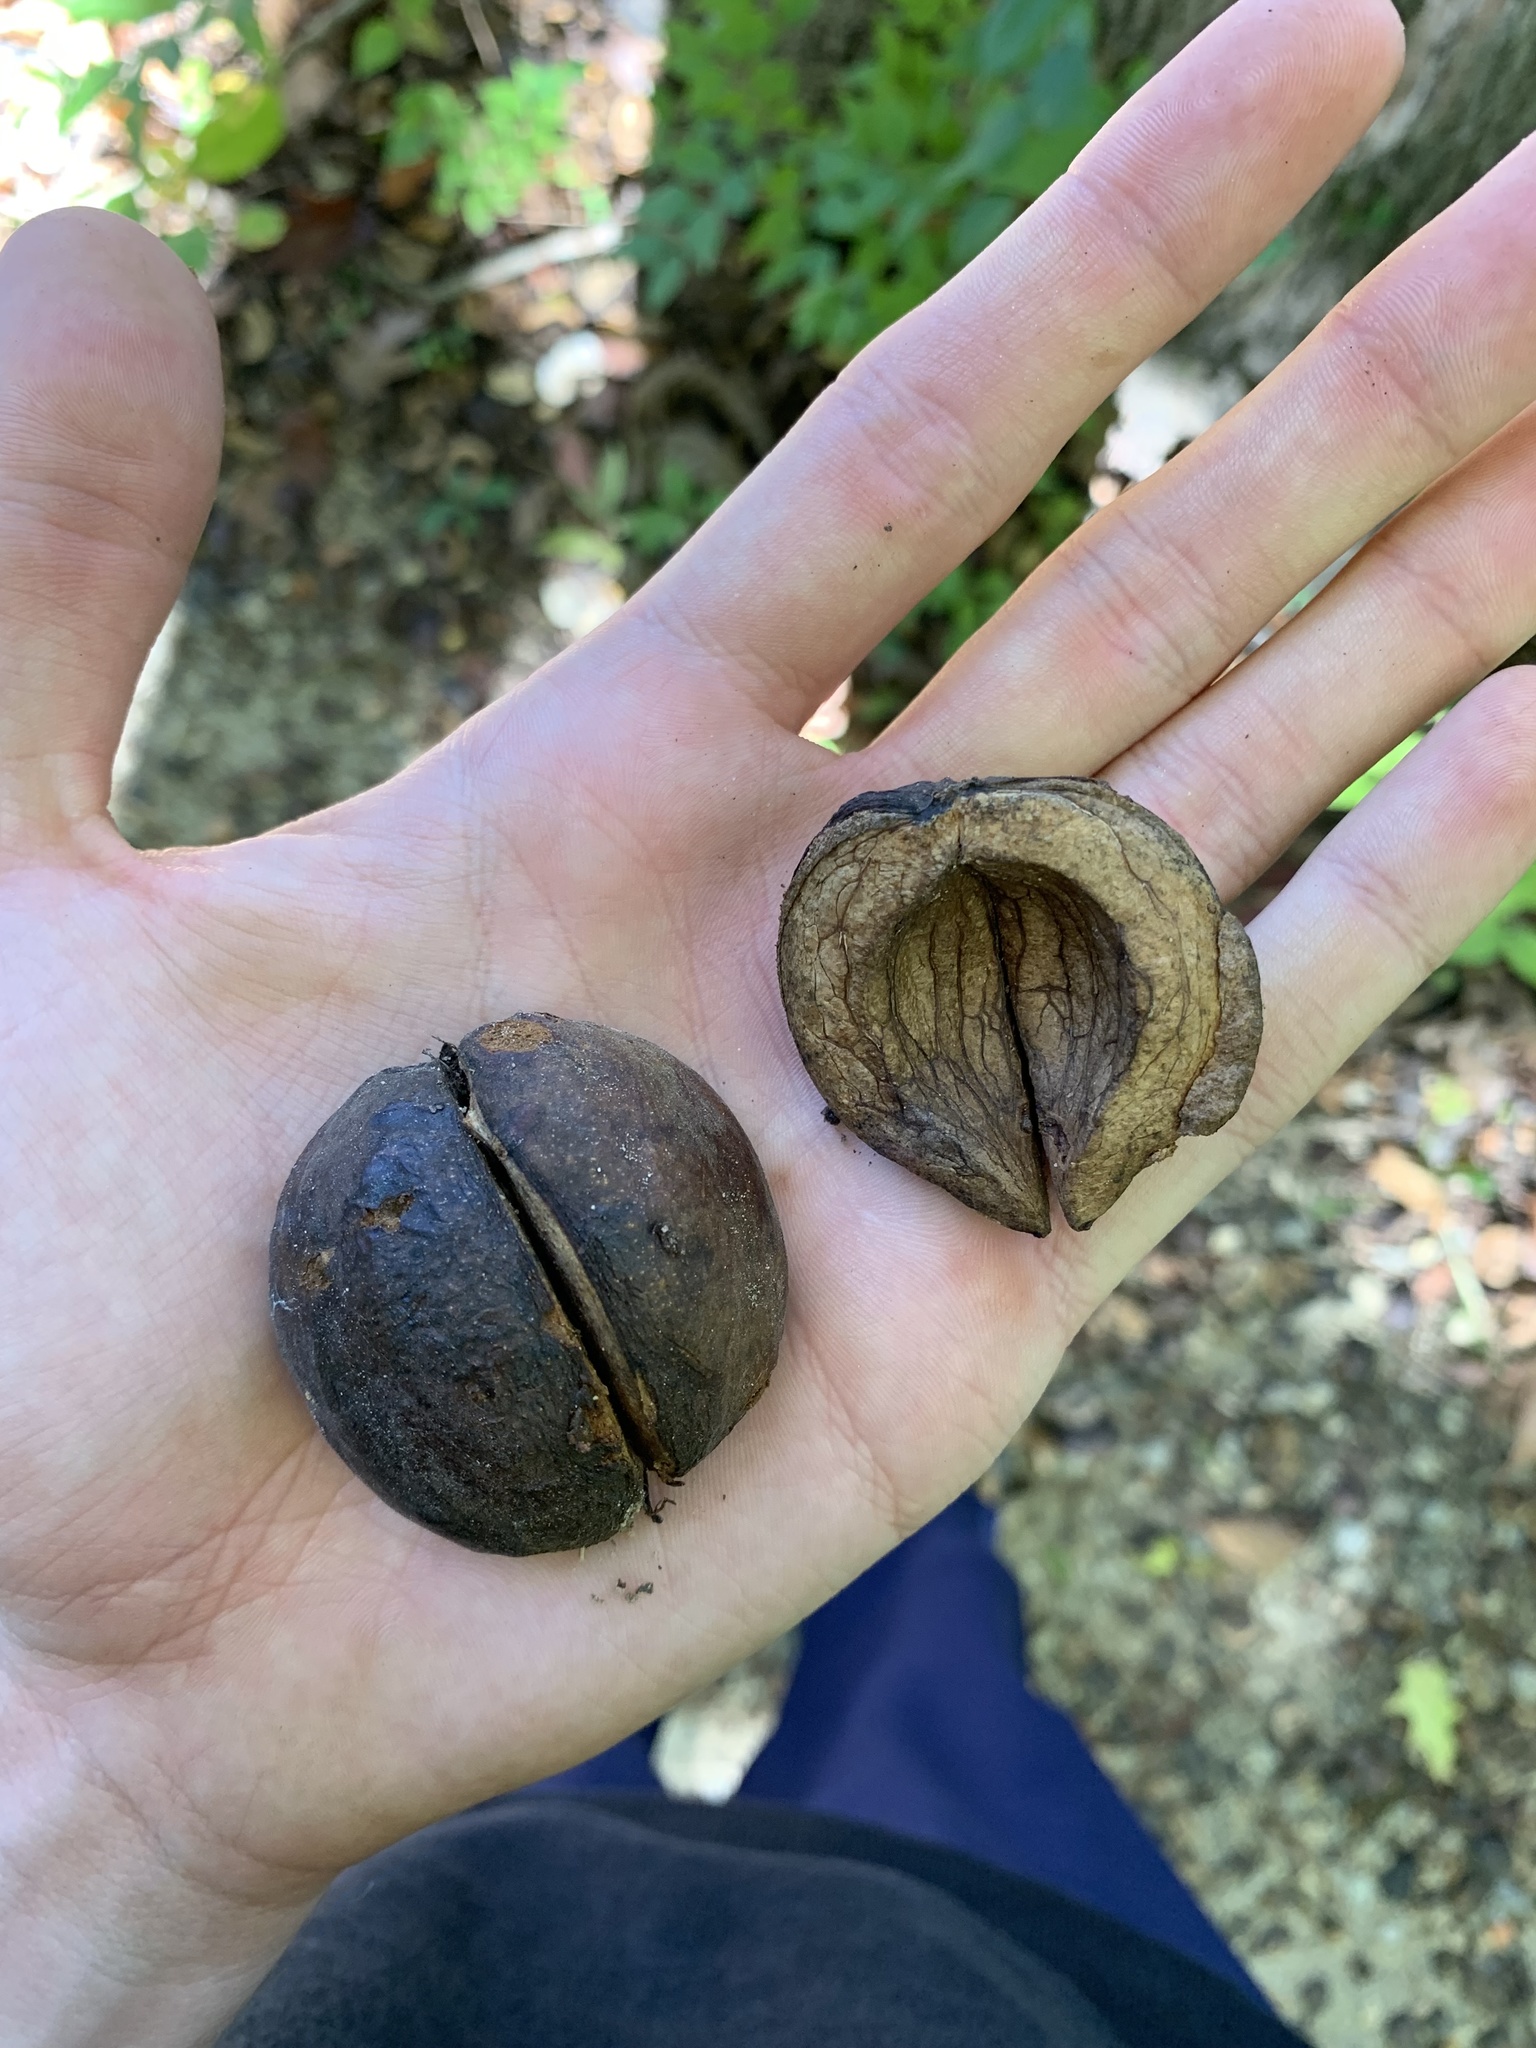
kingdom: Plantae
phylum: Tracheophyta
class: Magnoliopsida
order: Fagales
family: Juglandaceae
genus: Carya
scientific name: Carya alba
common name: Mockernut hickory
